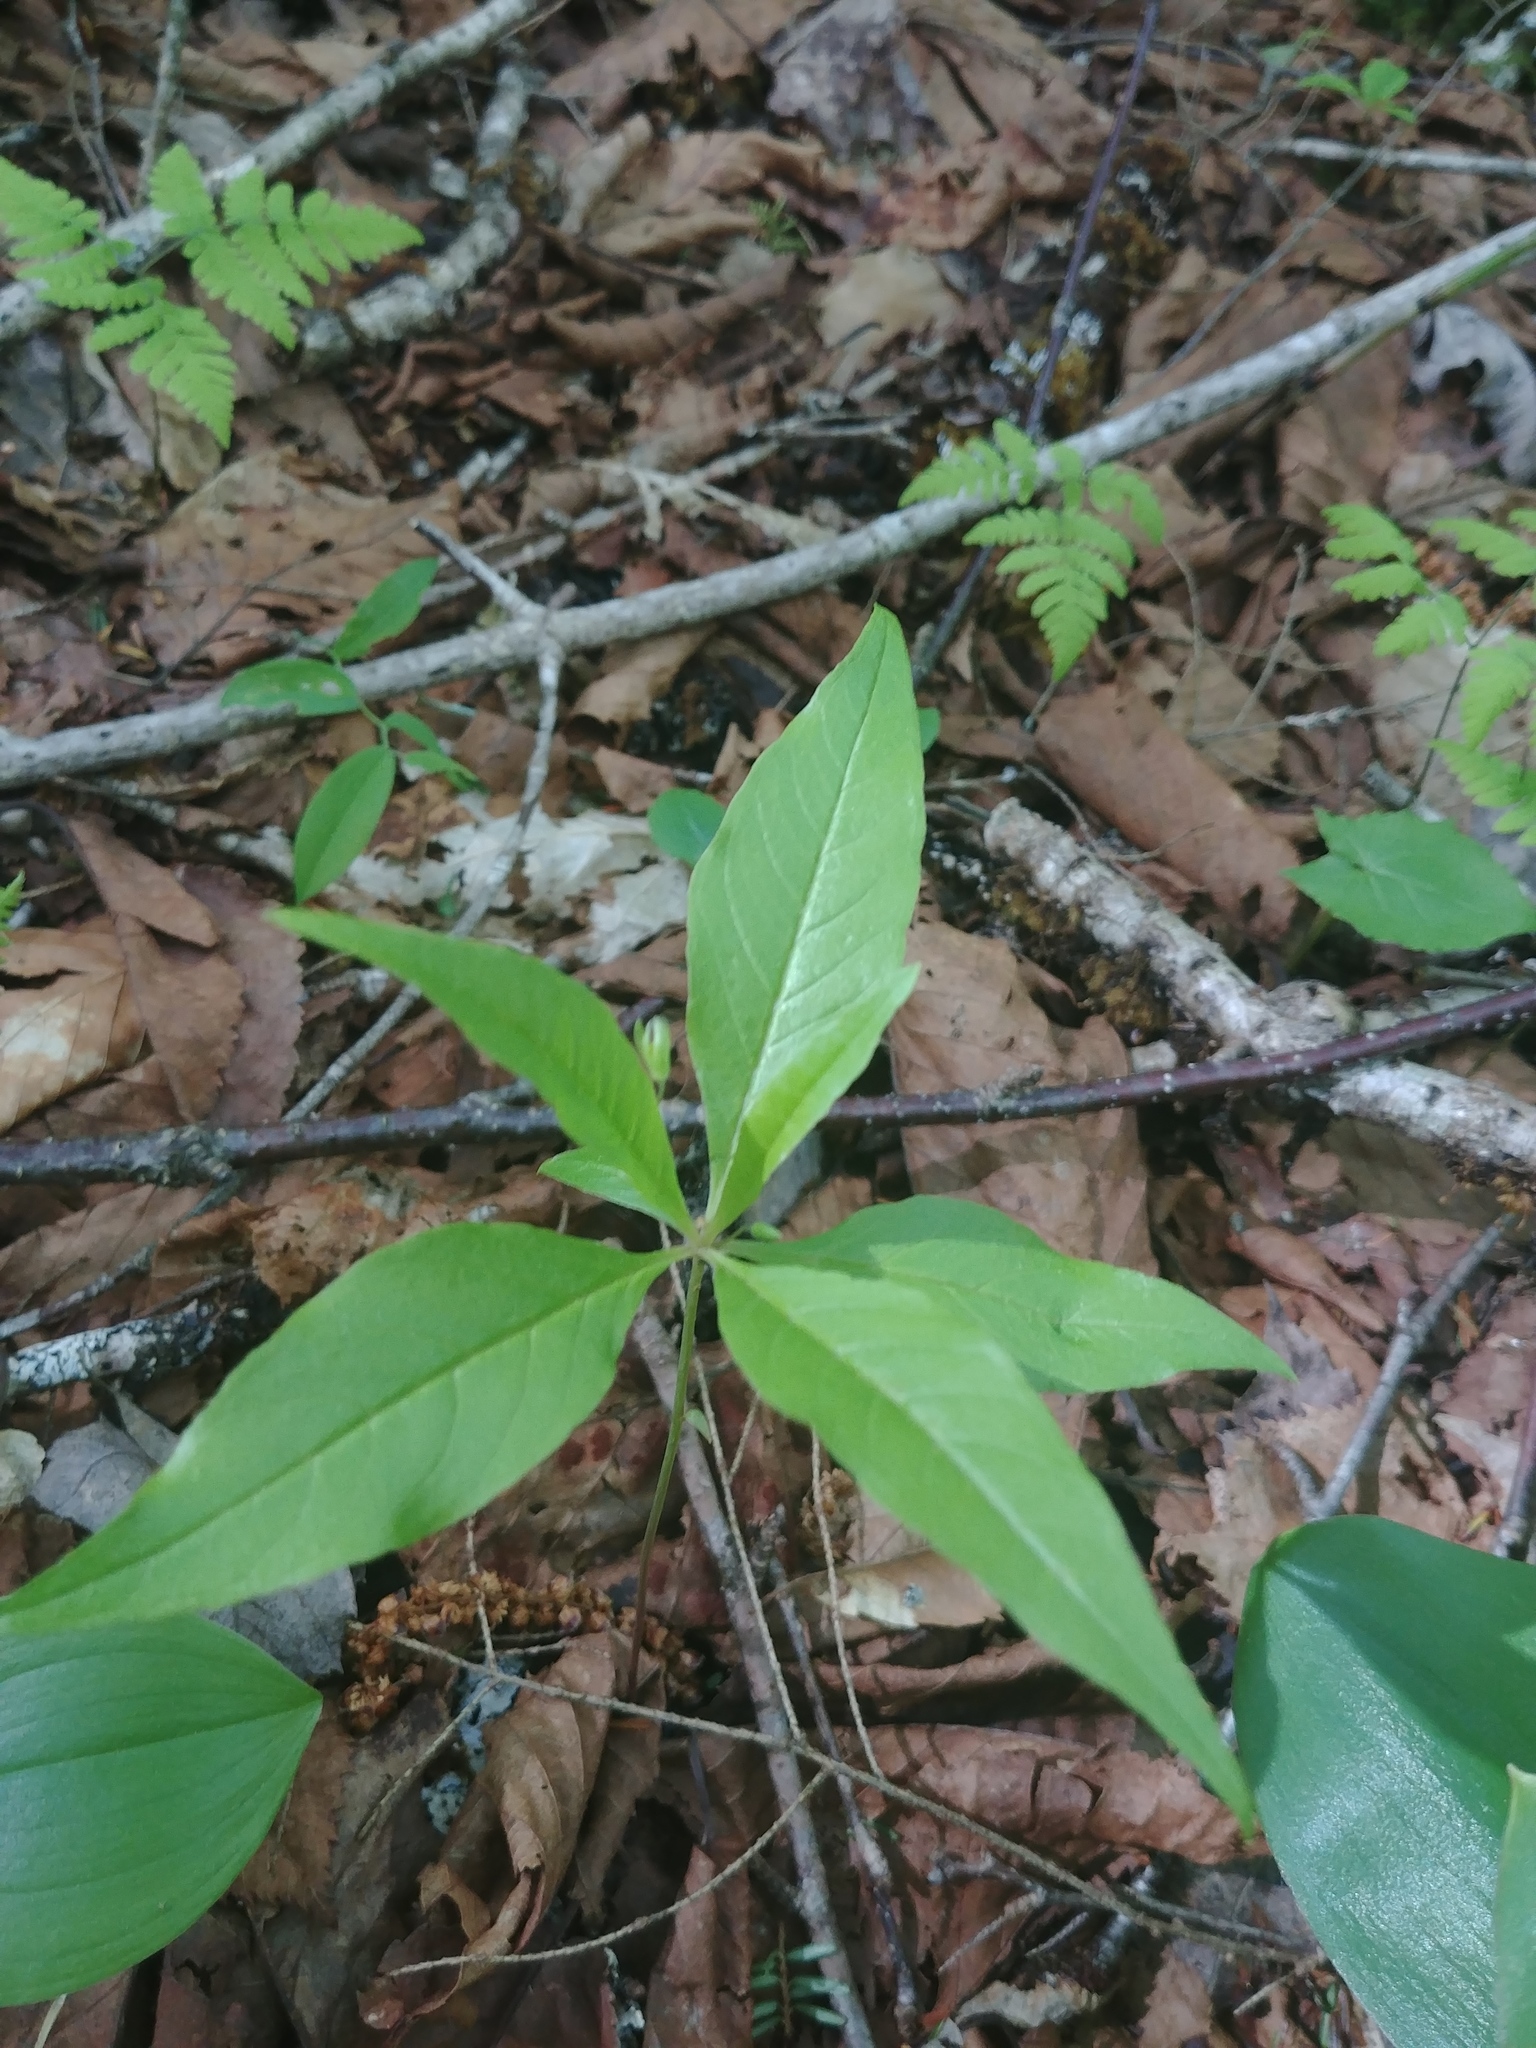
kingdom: Plantae
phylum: Tracheophyta
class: Magnoliopsida
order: Ericales
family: Primulaceae
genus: Lysimachia
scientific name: Lysimachia borealis
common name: American starflower
